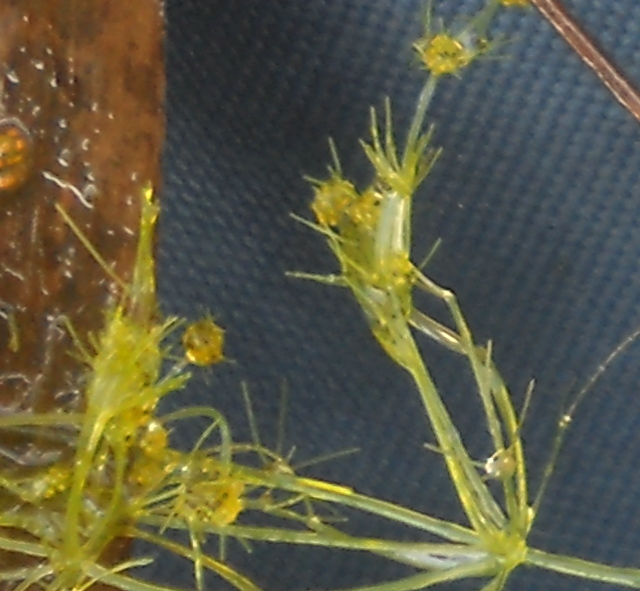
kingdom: Plantae
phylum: Charophyta
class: Charophyceae
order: Charales
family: Characeae
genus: Nitella
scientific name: Nitella capillaris
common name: Slimy-fruited stonewort
